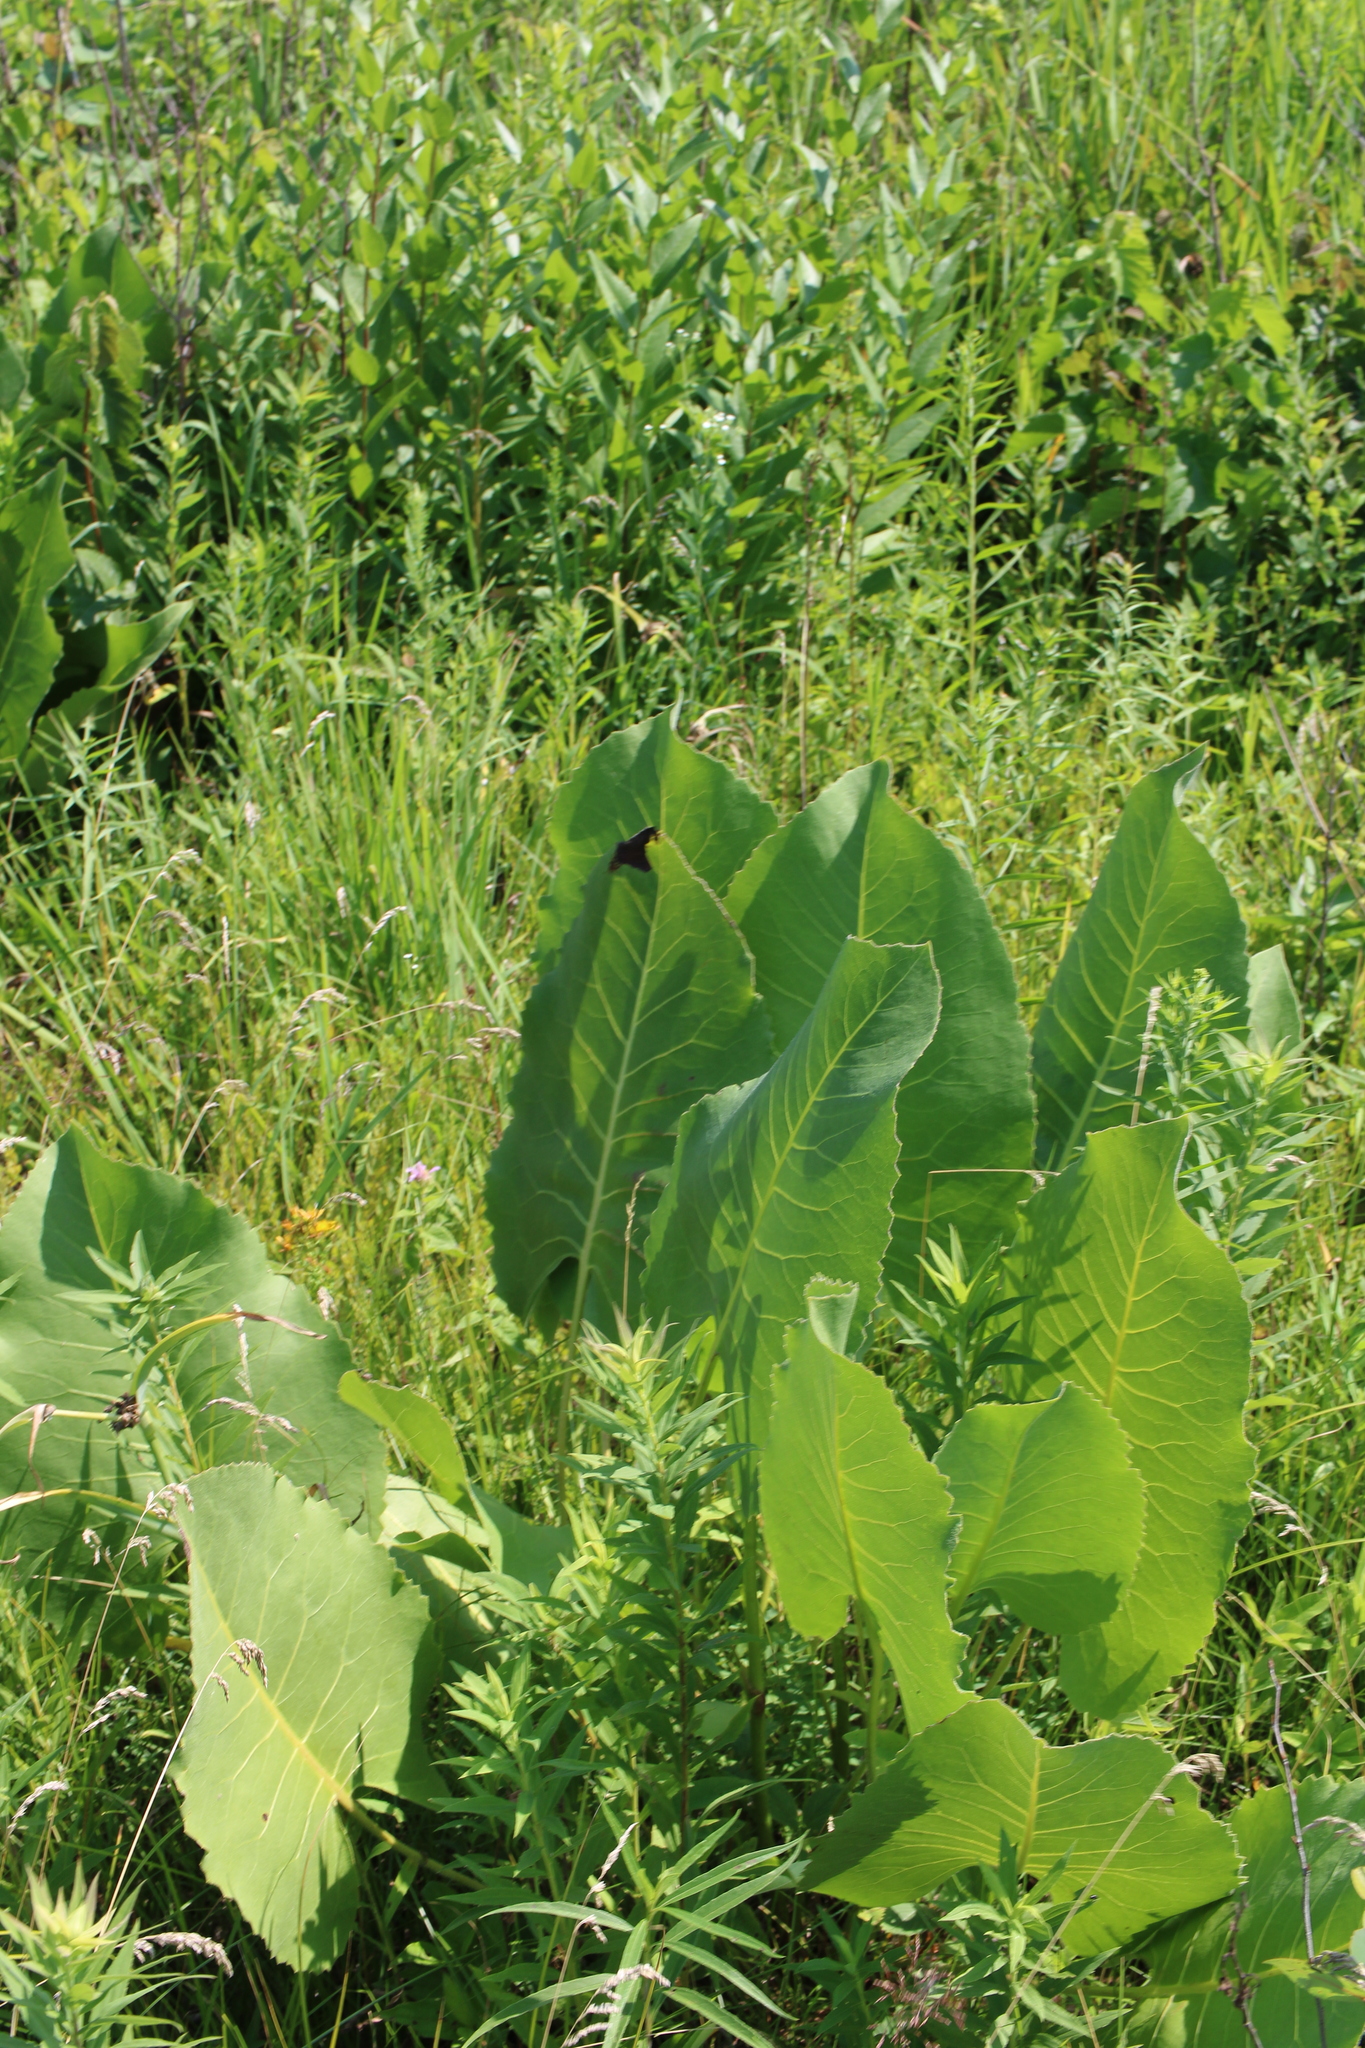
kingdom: Plantae
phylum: Tracheophyta
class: Magnoliopsida
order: Asterales
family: Asteraceae
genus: Silphium
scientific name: Silphium terebinthinaceum
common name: Basal-leaf rosinweed
